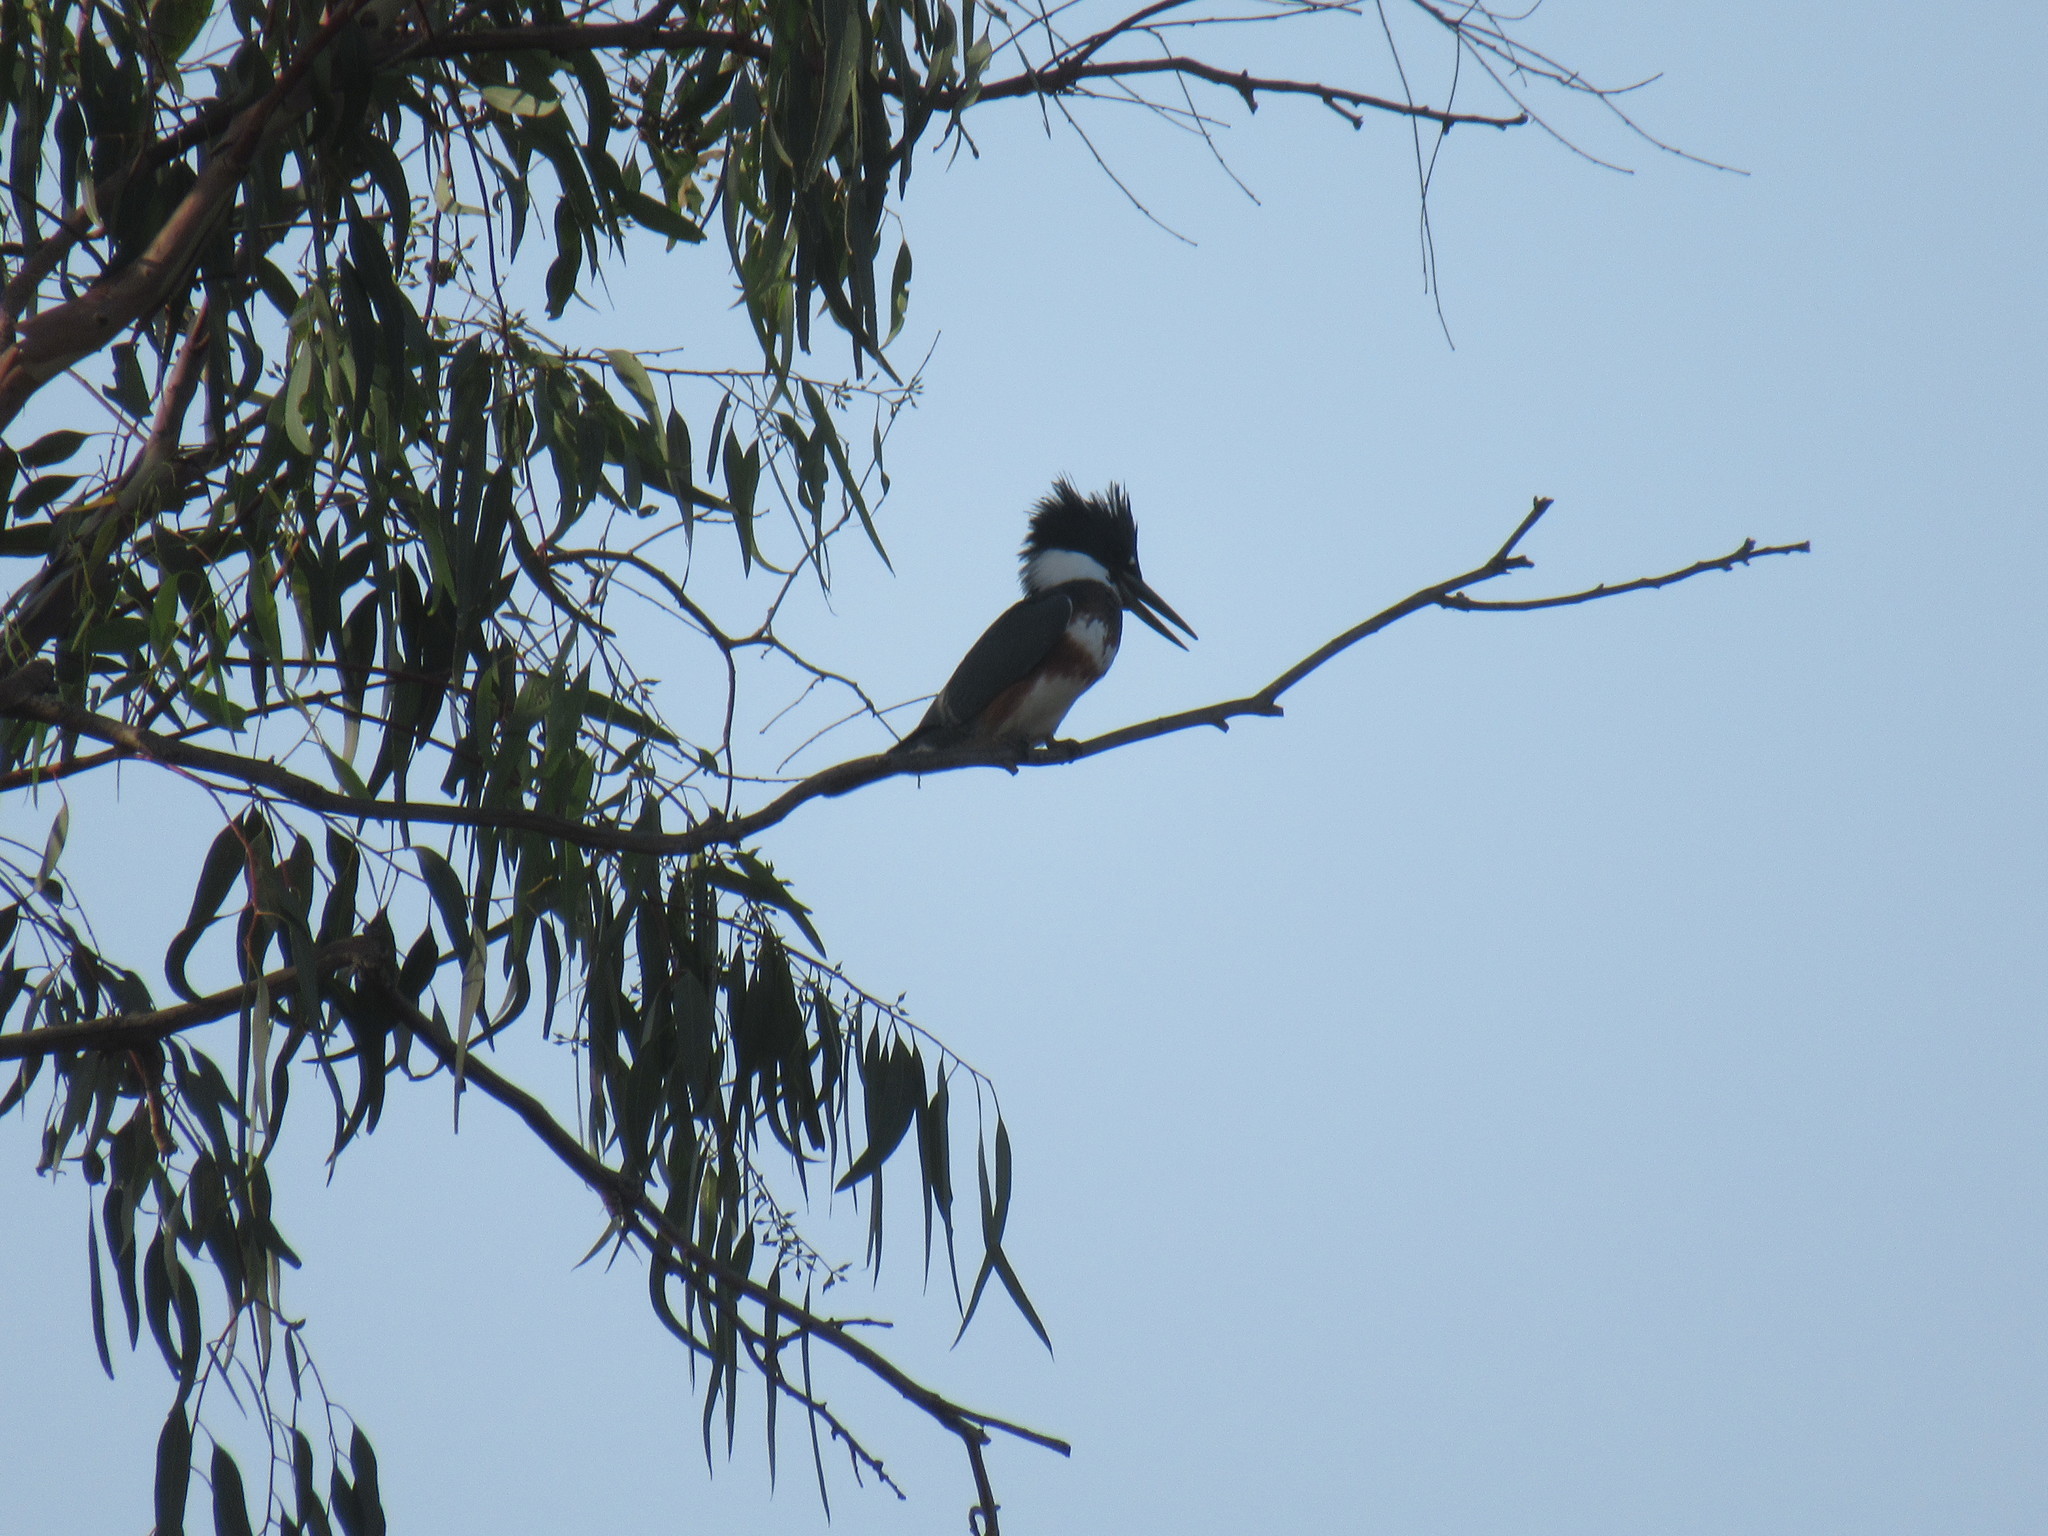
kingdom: Animalia
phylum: Chordata
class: Aves
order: Coraciiformes
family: Alcedinidae
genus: Megaceryle
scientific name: Megaceryle alcyon
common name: Belted kingfisher
